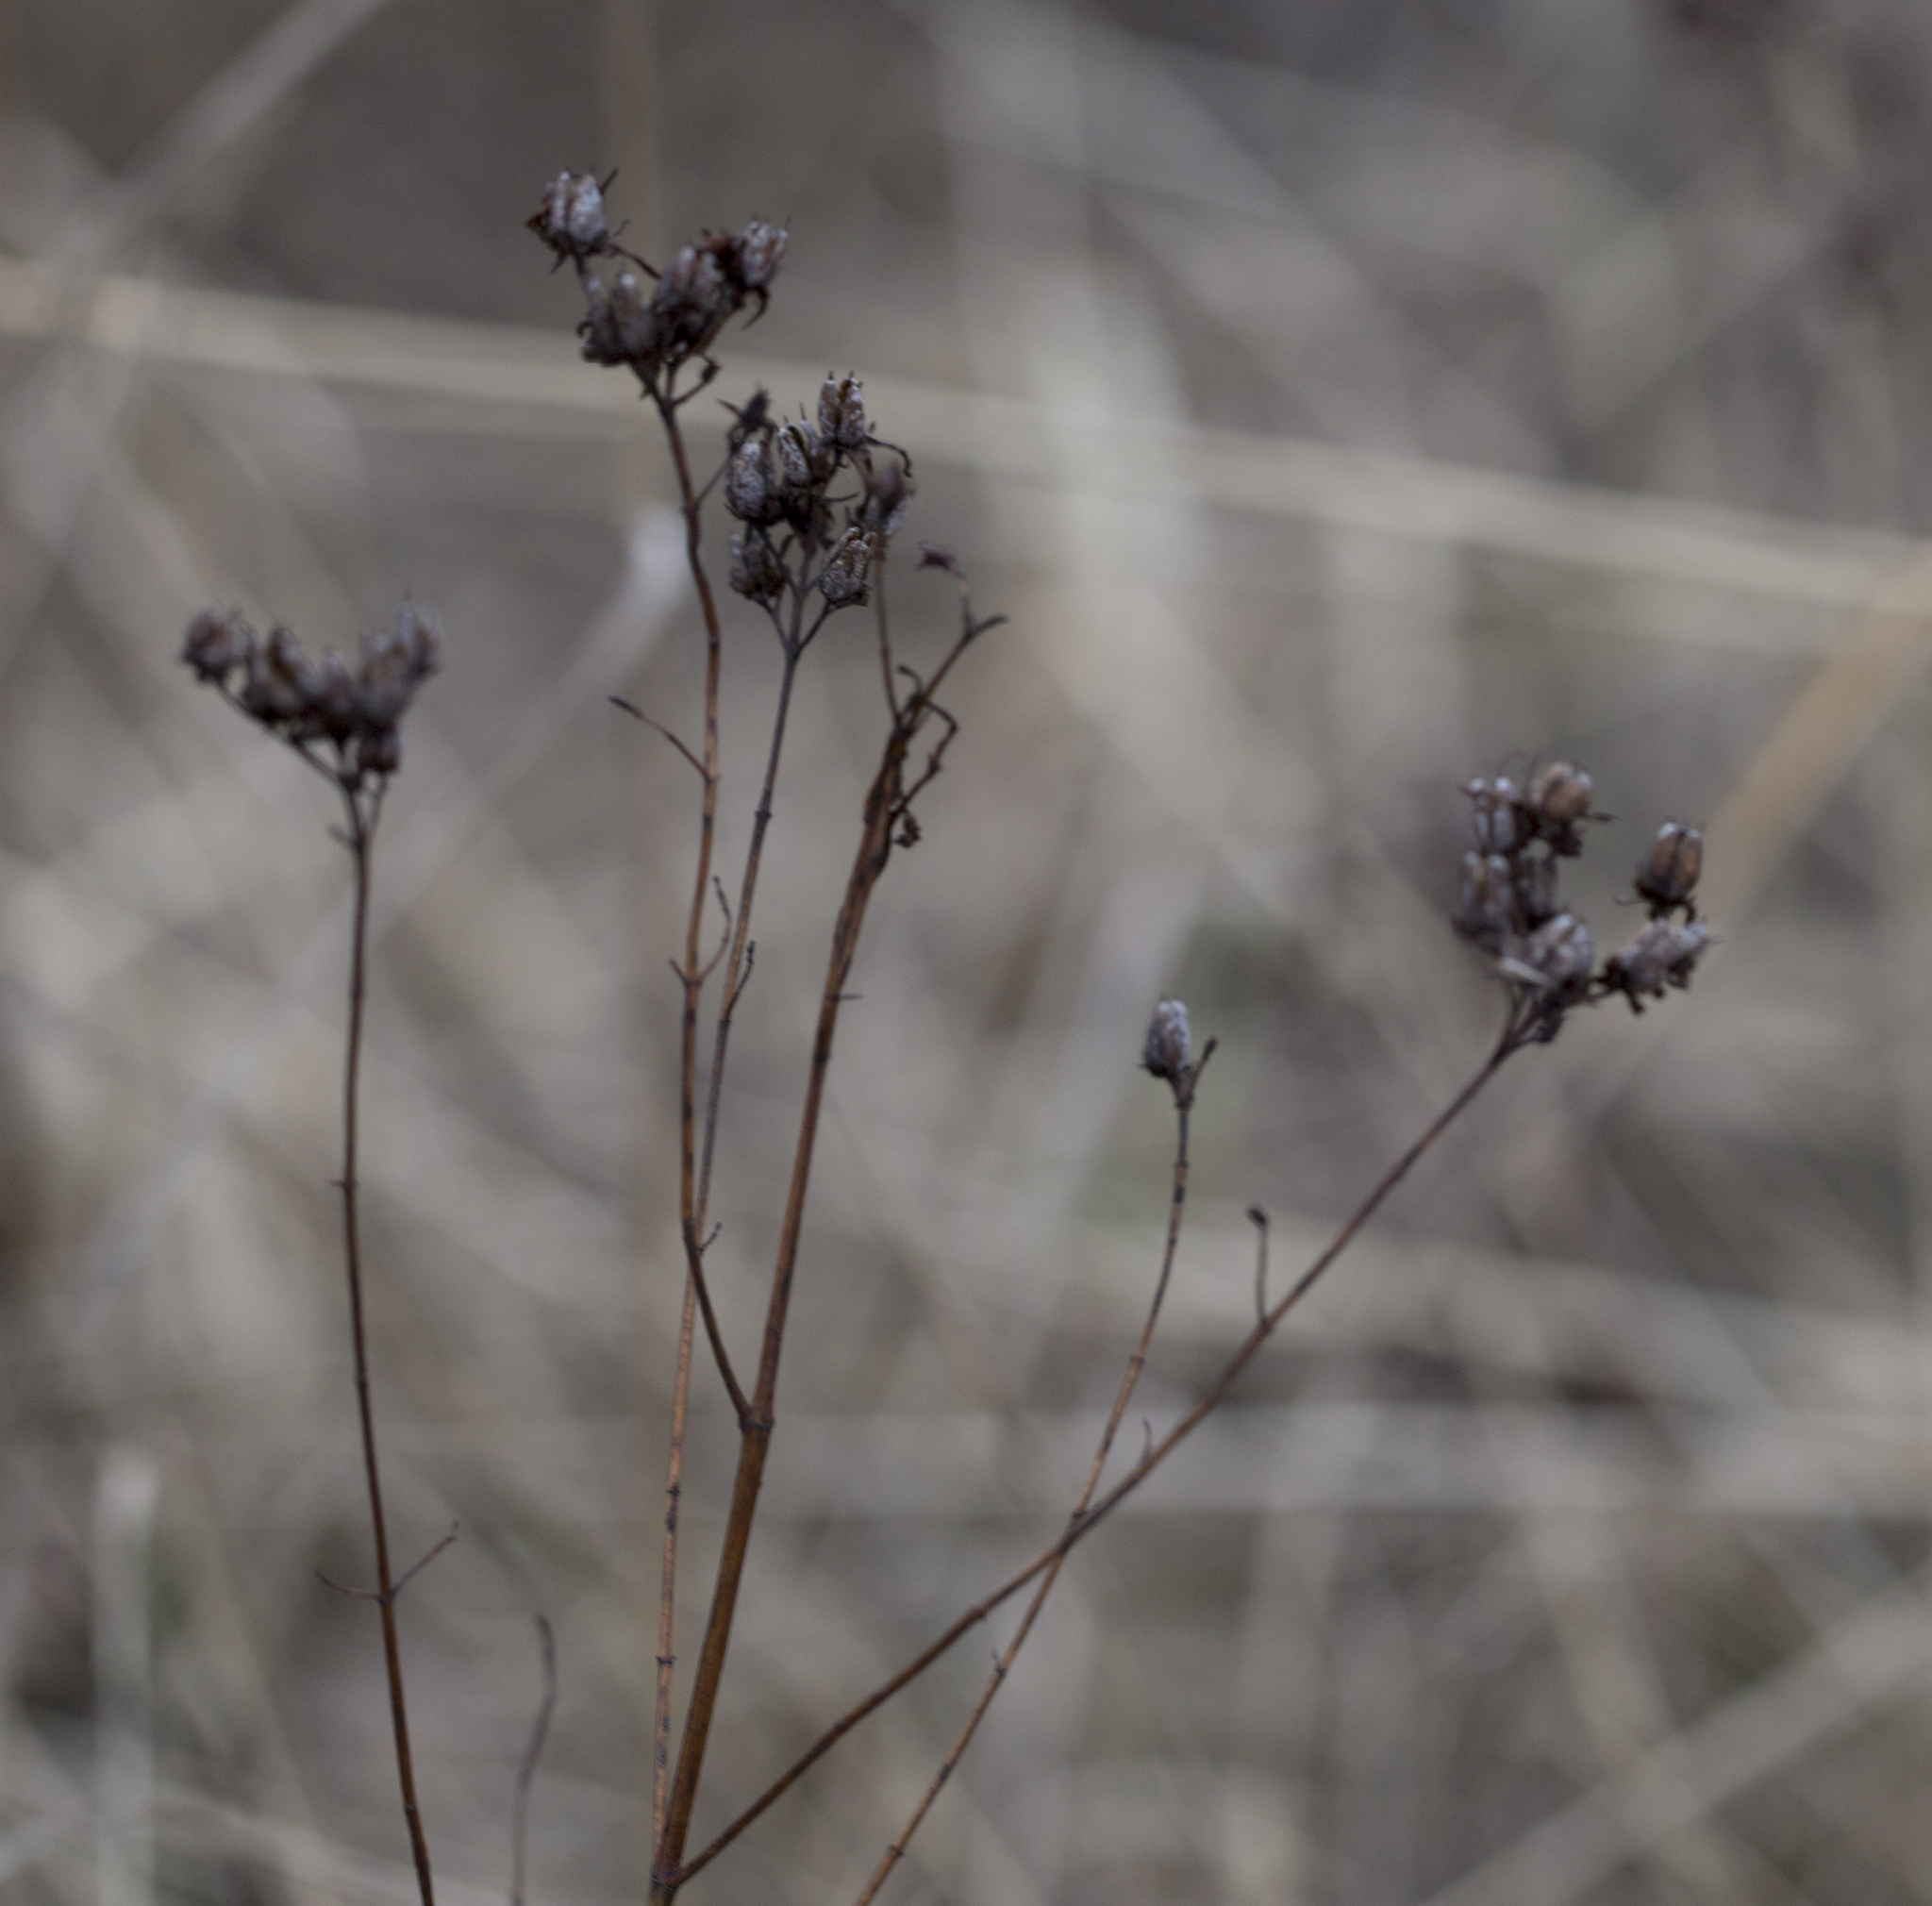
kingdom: Plantae
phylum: Tracheophyta
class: Magnoliopsida
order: Malpighiales
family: Hypericaceae
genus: Hypericum
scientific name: Hypericum perforatum
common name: Common st. johnswort
